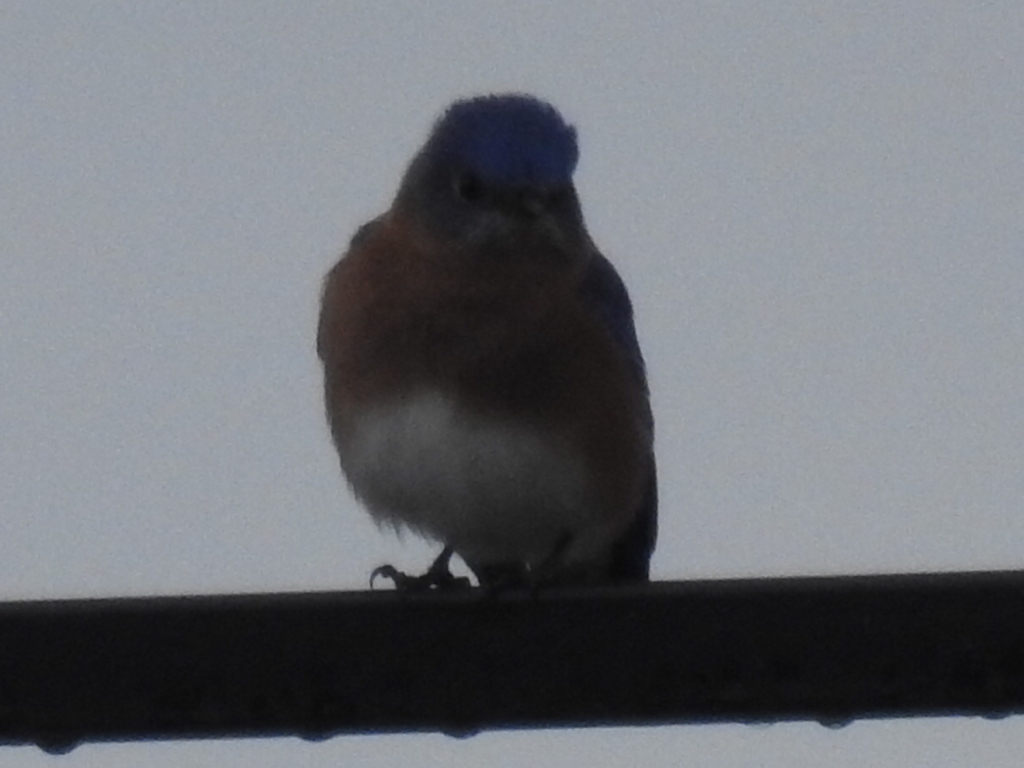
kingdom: Animalia
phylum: Chordata
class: Aves
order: Passeriformes
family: Turdidae
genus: Sialia
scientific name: Sialia sialis
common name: Eastern bluebird
